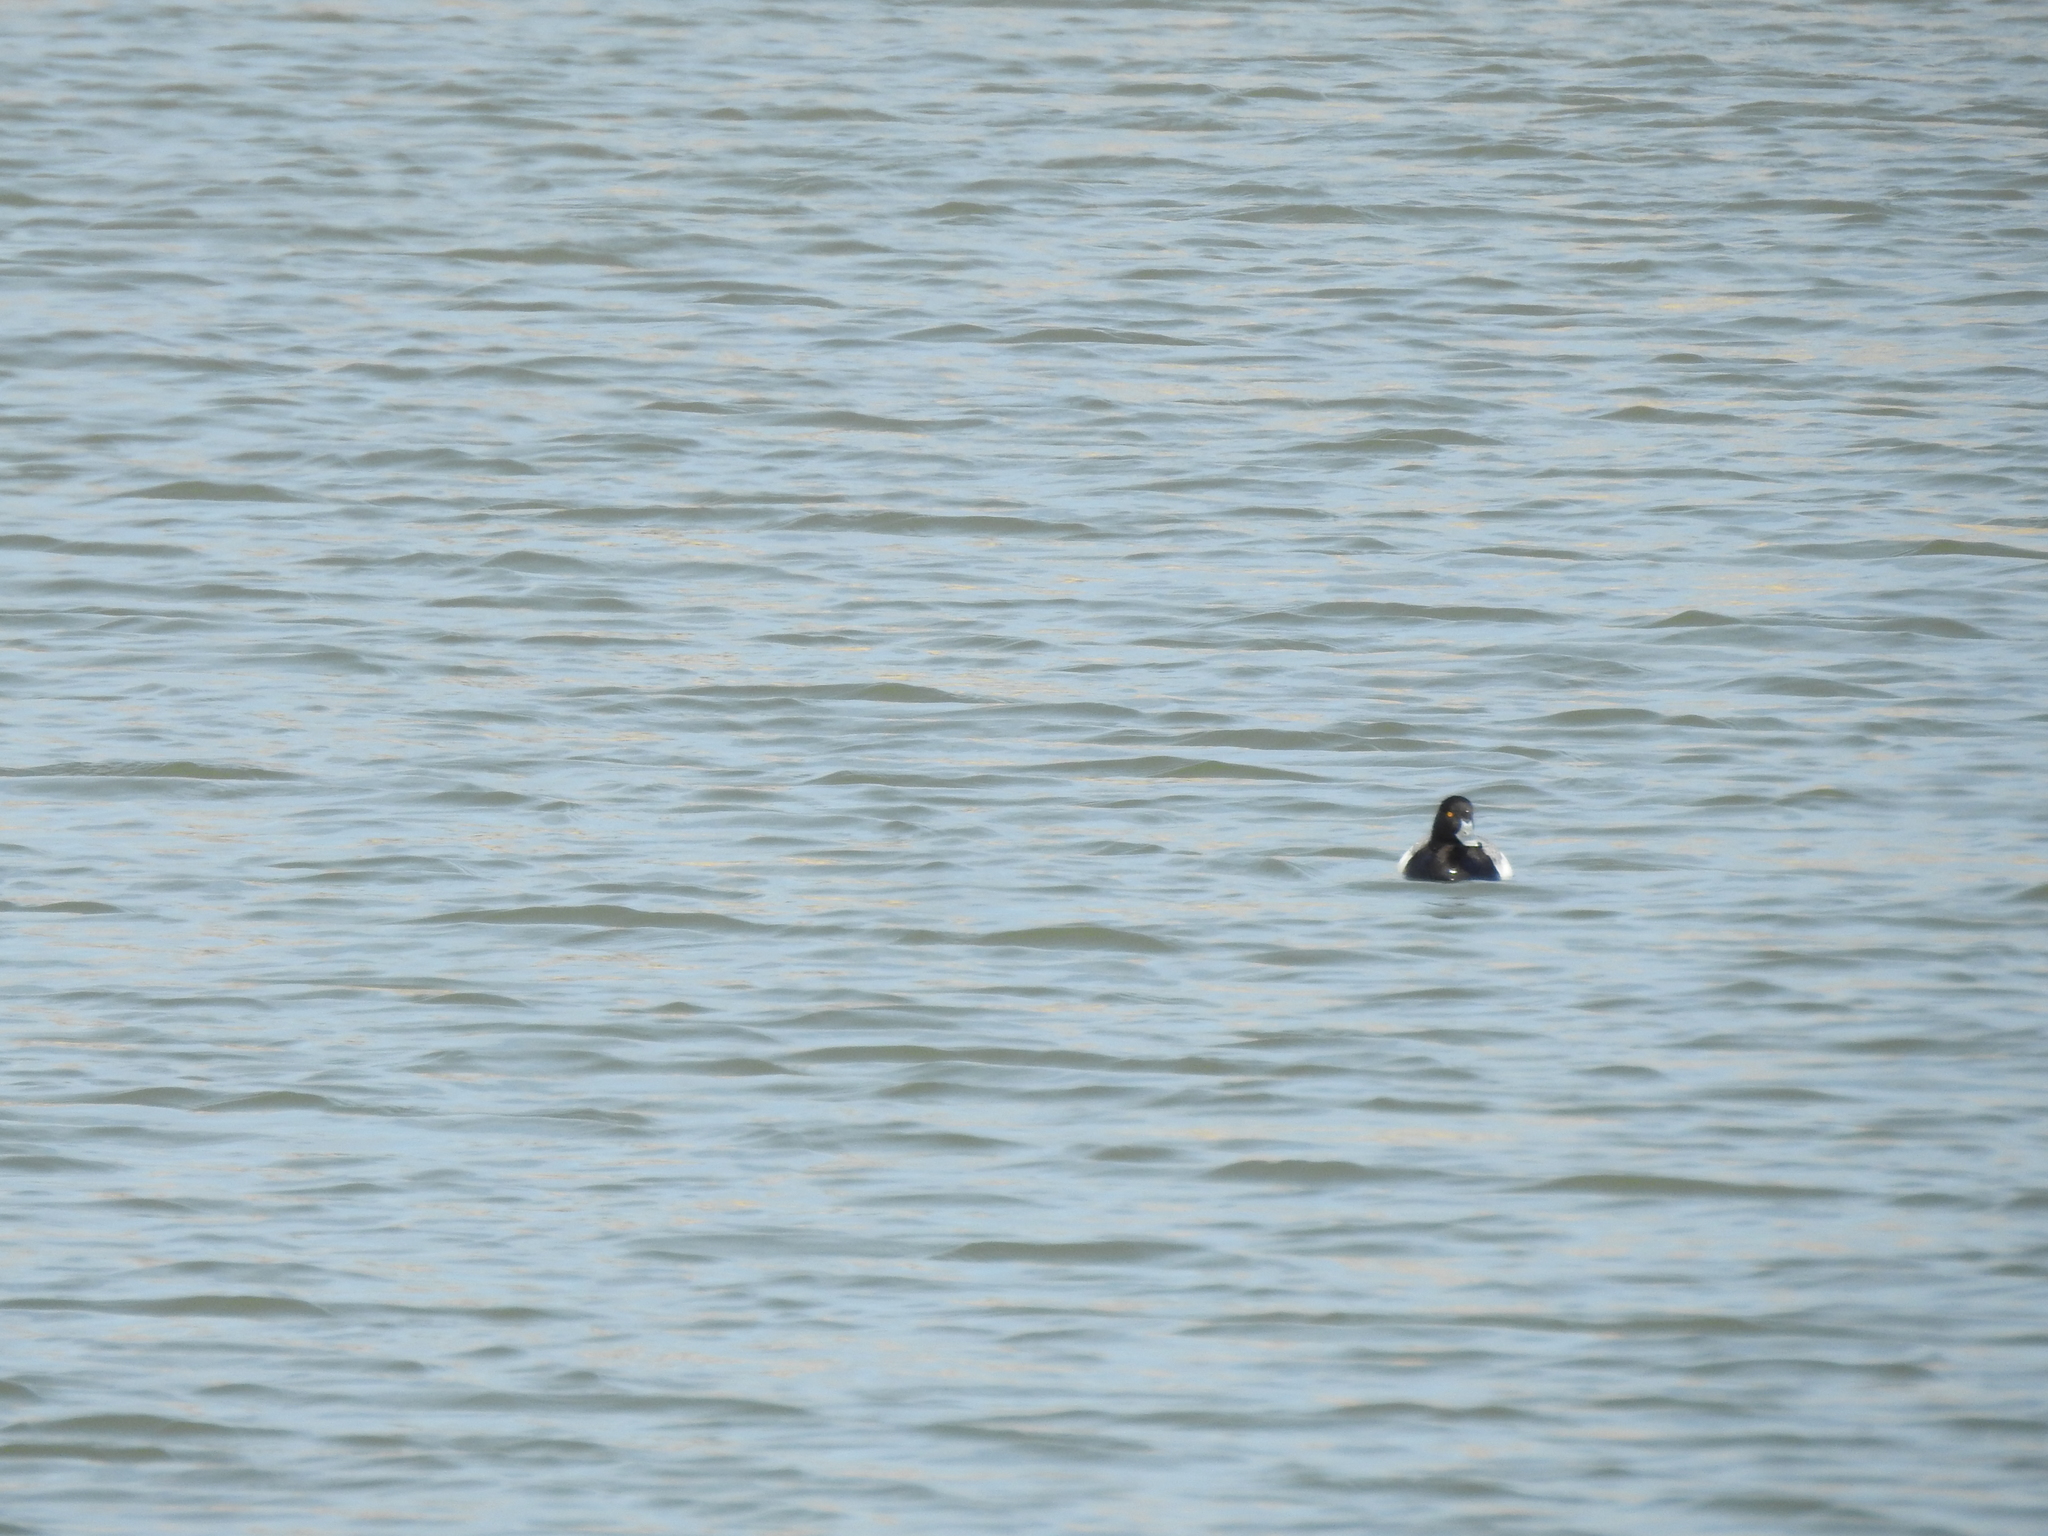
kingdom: Animalia
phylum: Chordata
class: Aves
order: Anseriformes
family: Anatidae
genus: Aythya
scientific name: Aythya affinis
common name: Lesser scaup
